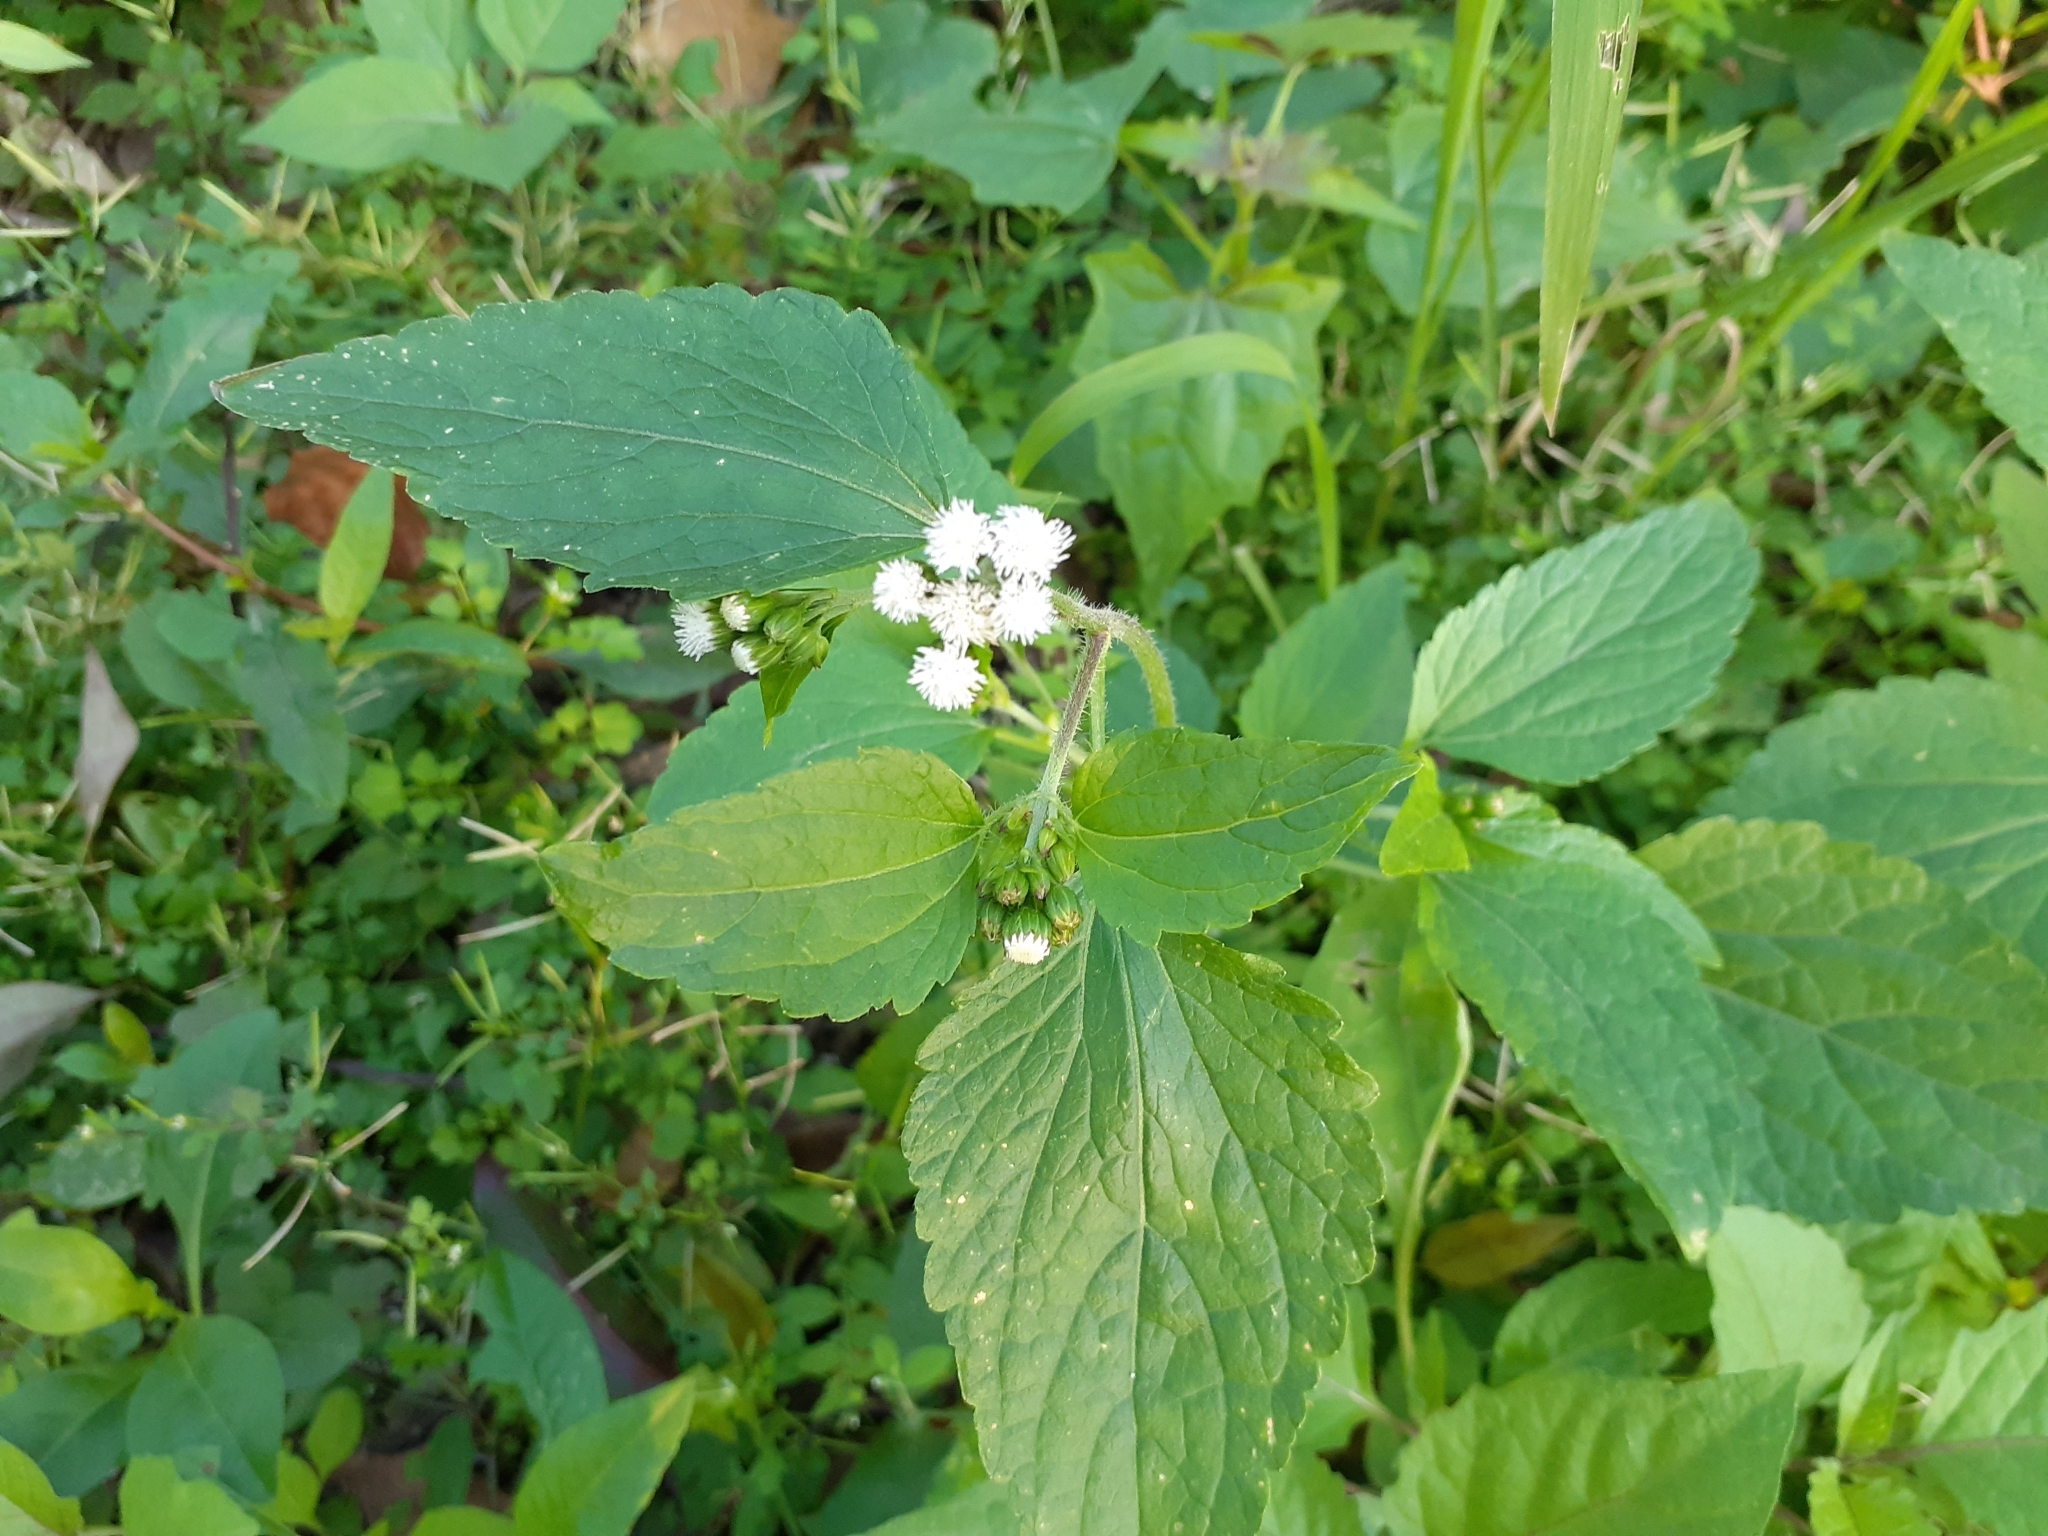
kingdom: Plantae
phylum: Tracheophyta
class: Magnoliopsida
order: Asterales
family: Asteraceae
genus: Ageratum
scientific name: Ageratum conyzoides
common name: Tropical whiteweed
